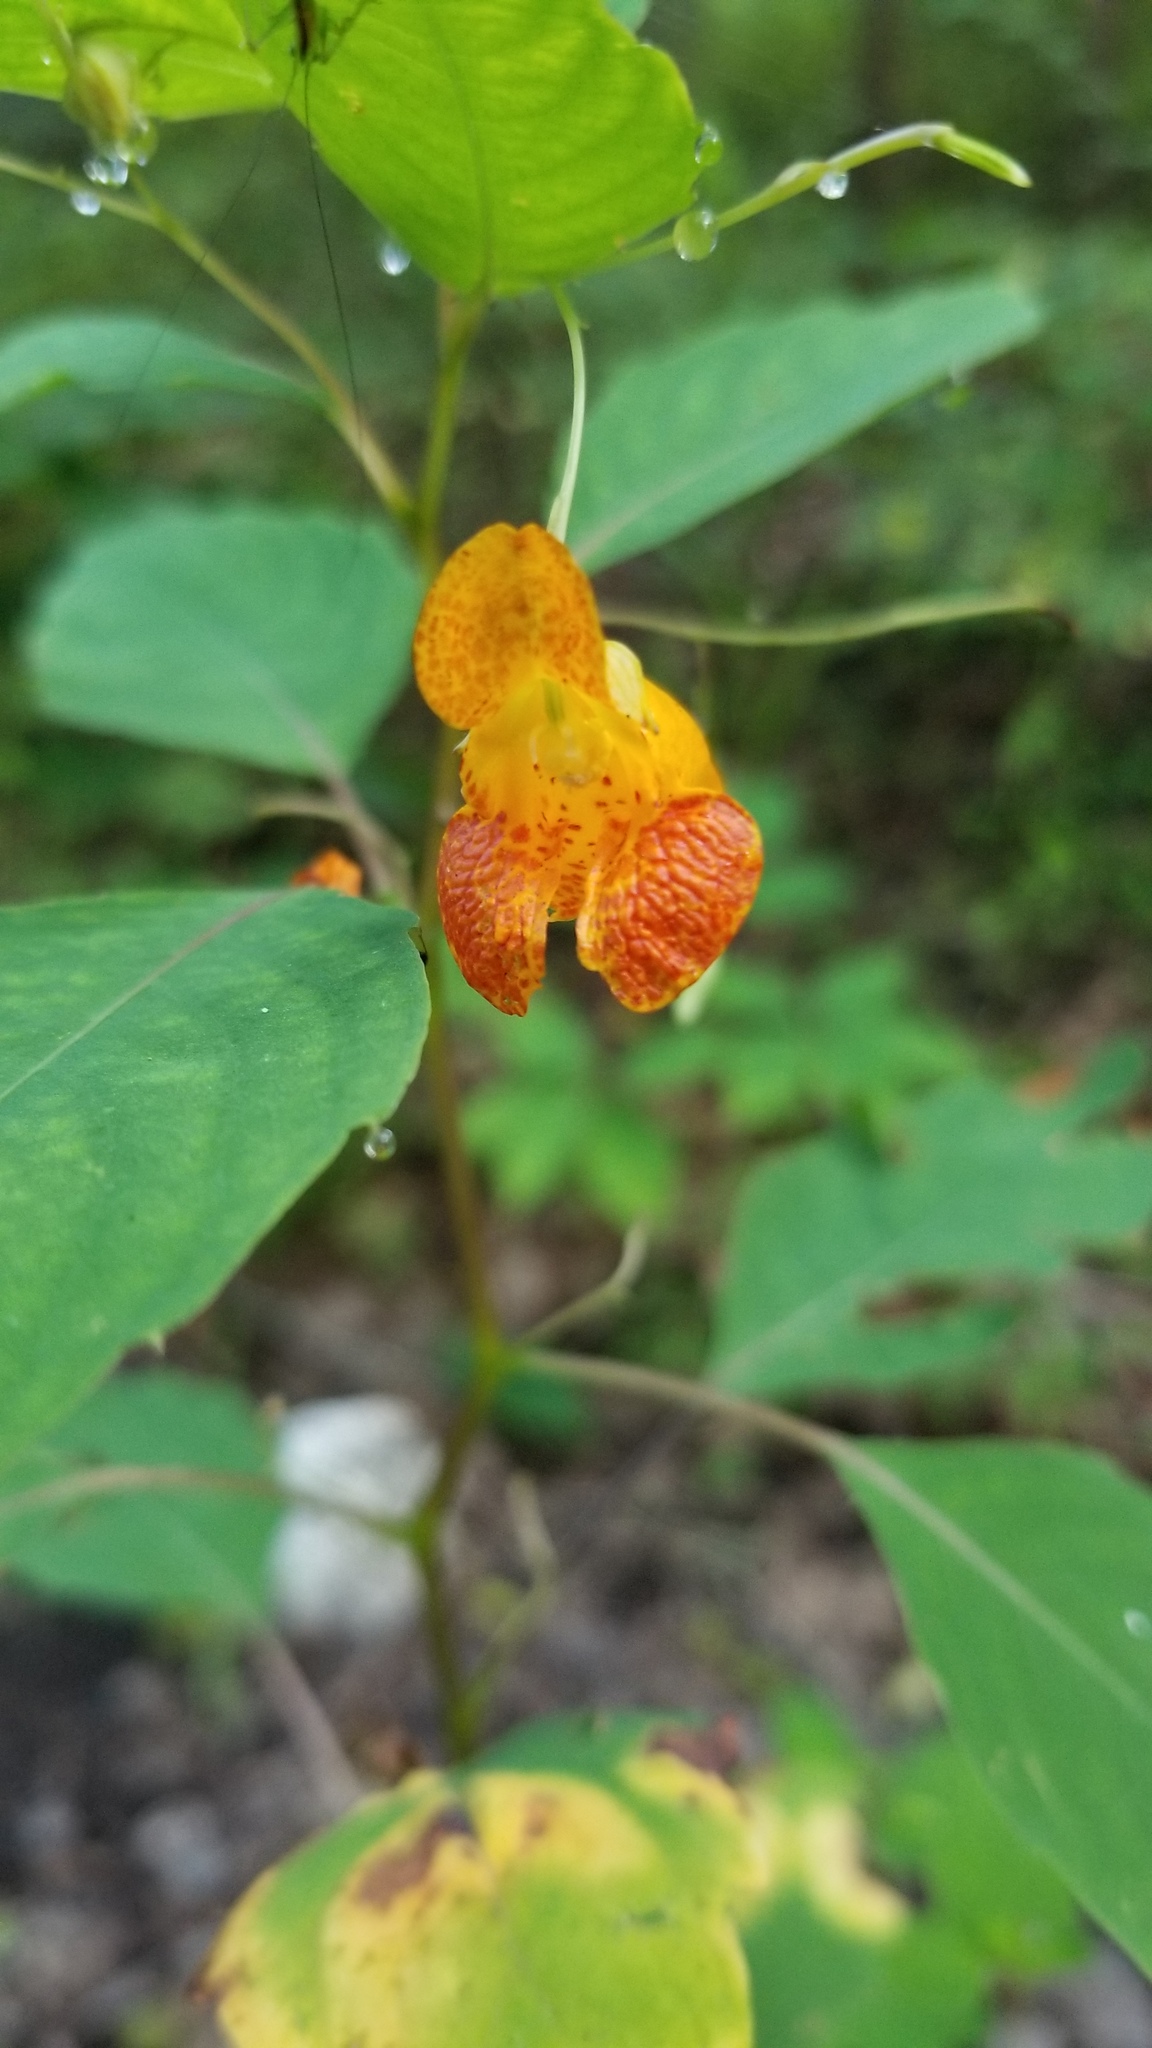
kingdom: Plantae
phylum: Tracheophyta
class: Magnoliopsida
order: Ericales
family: Balsaminaceae
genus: Impatiens
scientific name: Impatiens capensis
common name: Orange balsam
